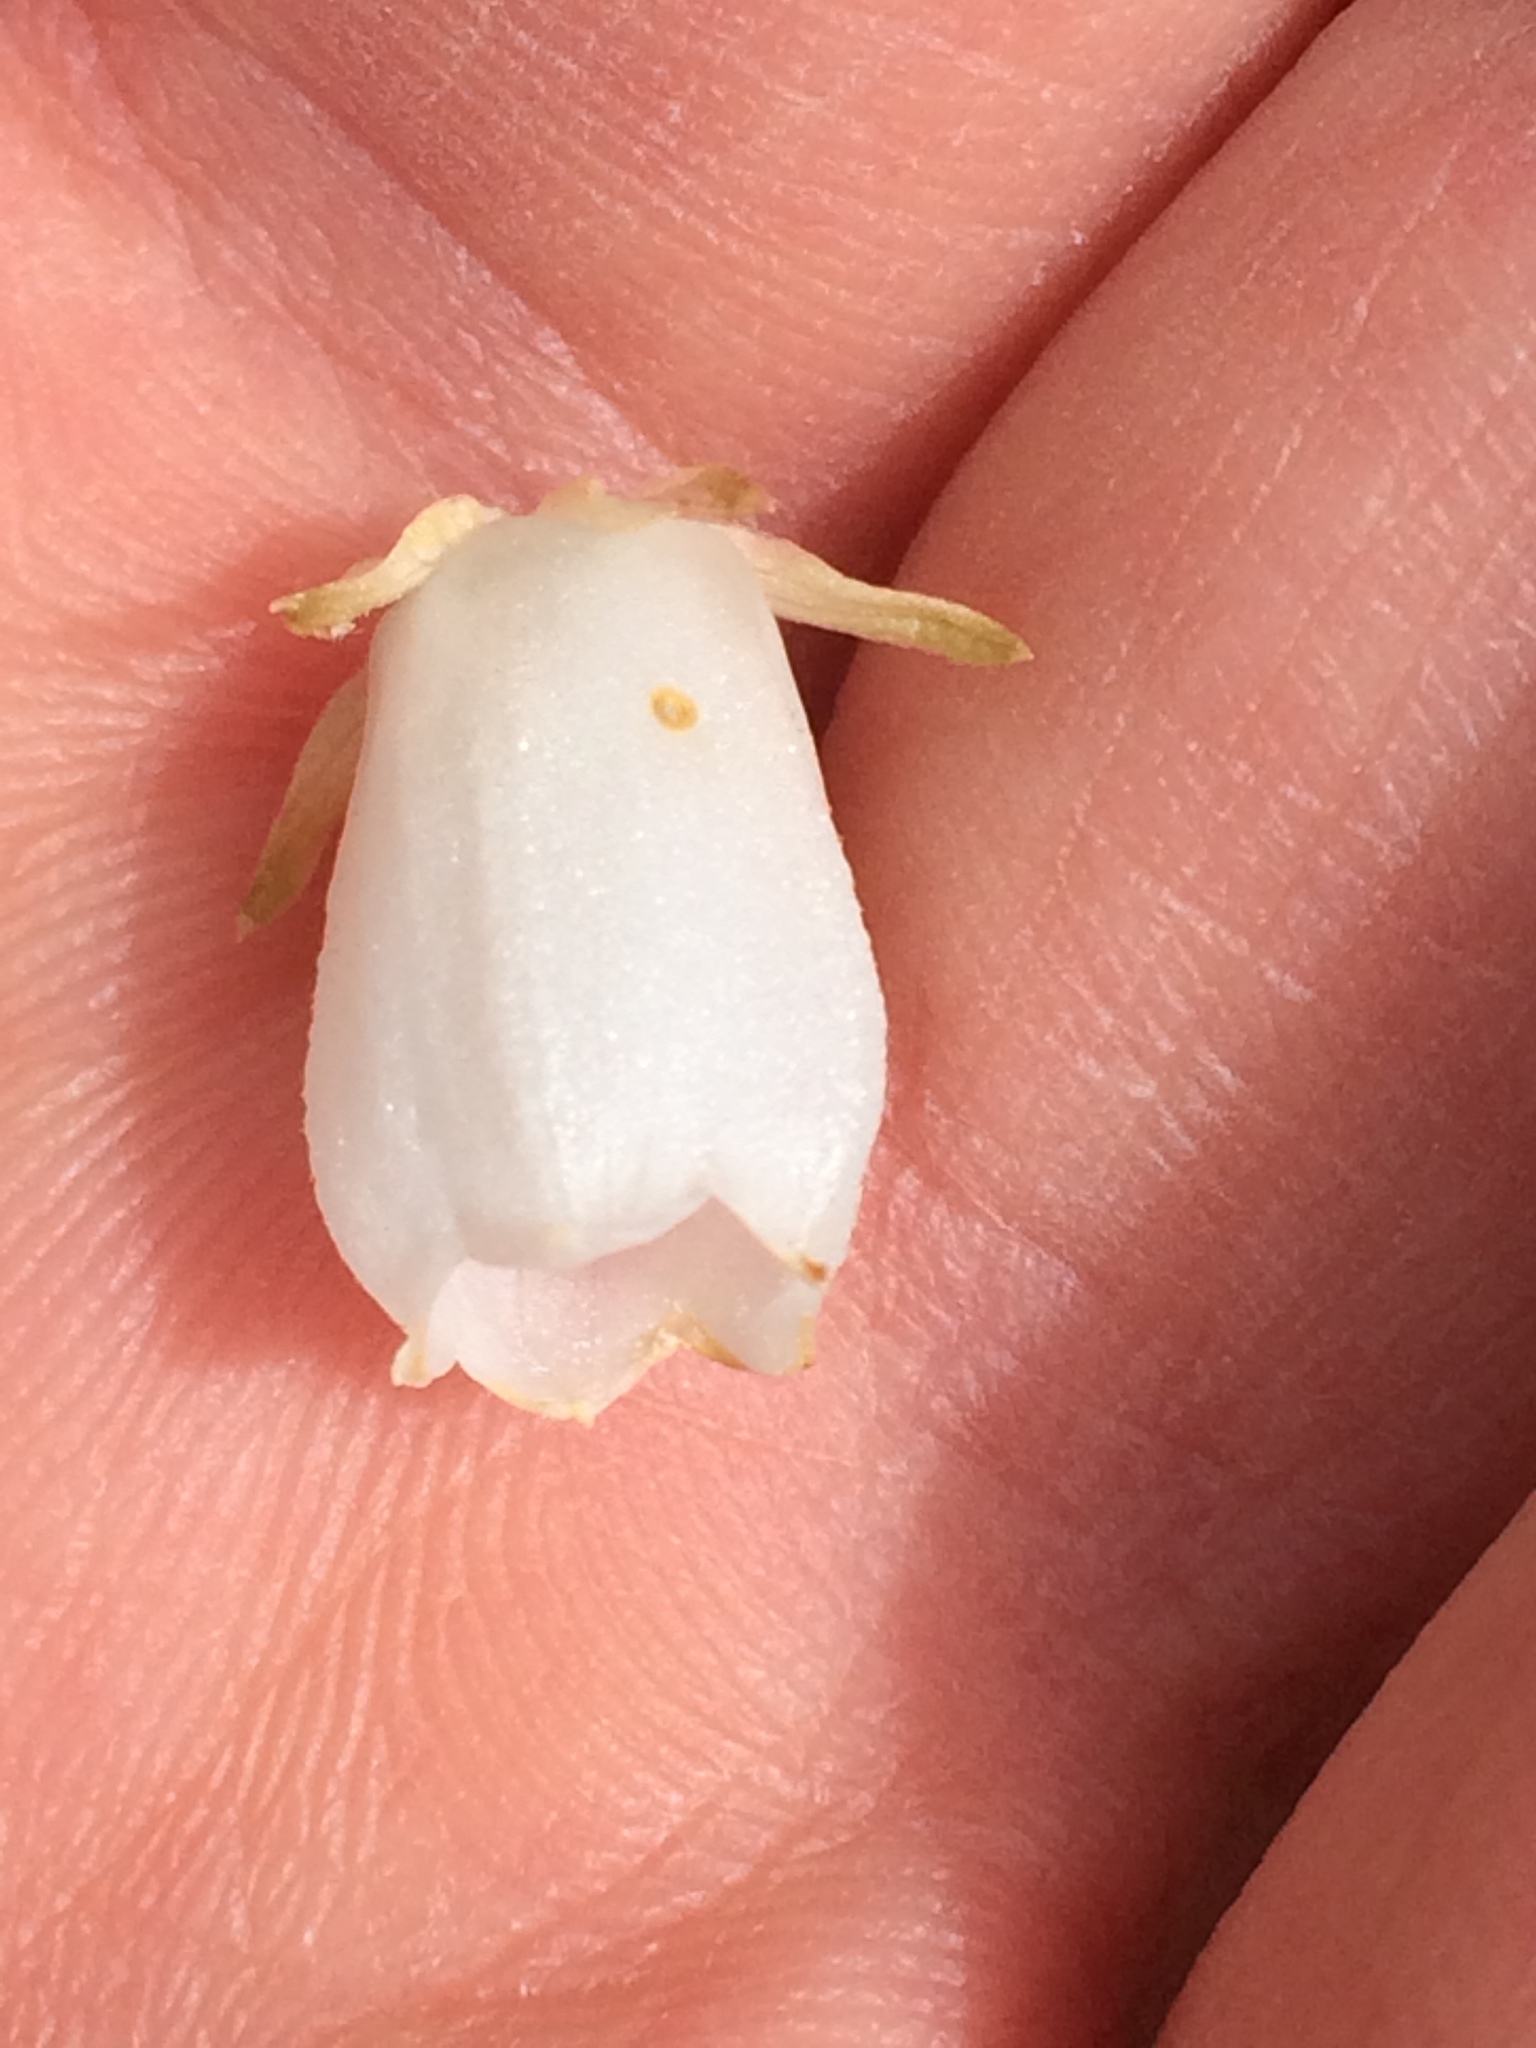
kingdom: Plantae
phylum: Tracheophyta
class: Magnoliopsida
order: Ericales
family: Ericaceae
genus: Lyonia
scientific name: Lyonia mariana
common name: Staggerbush
